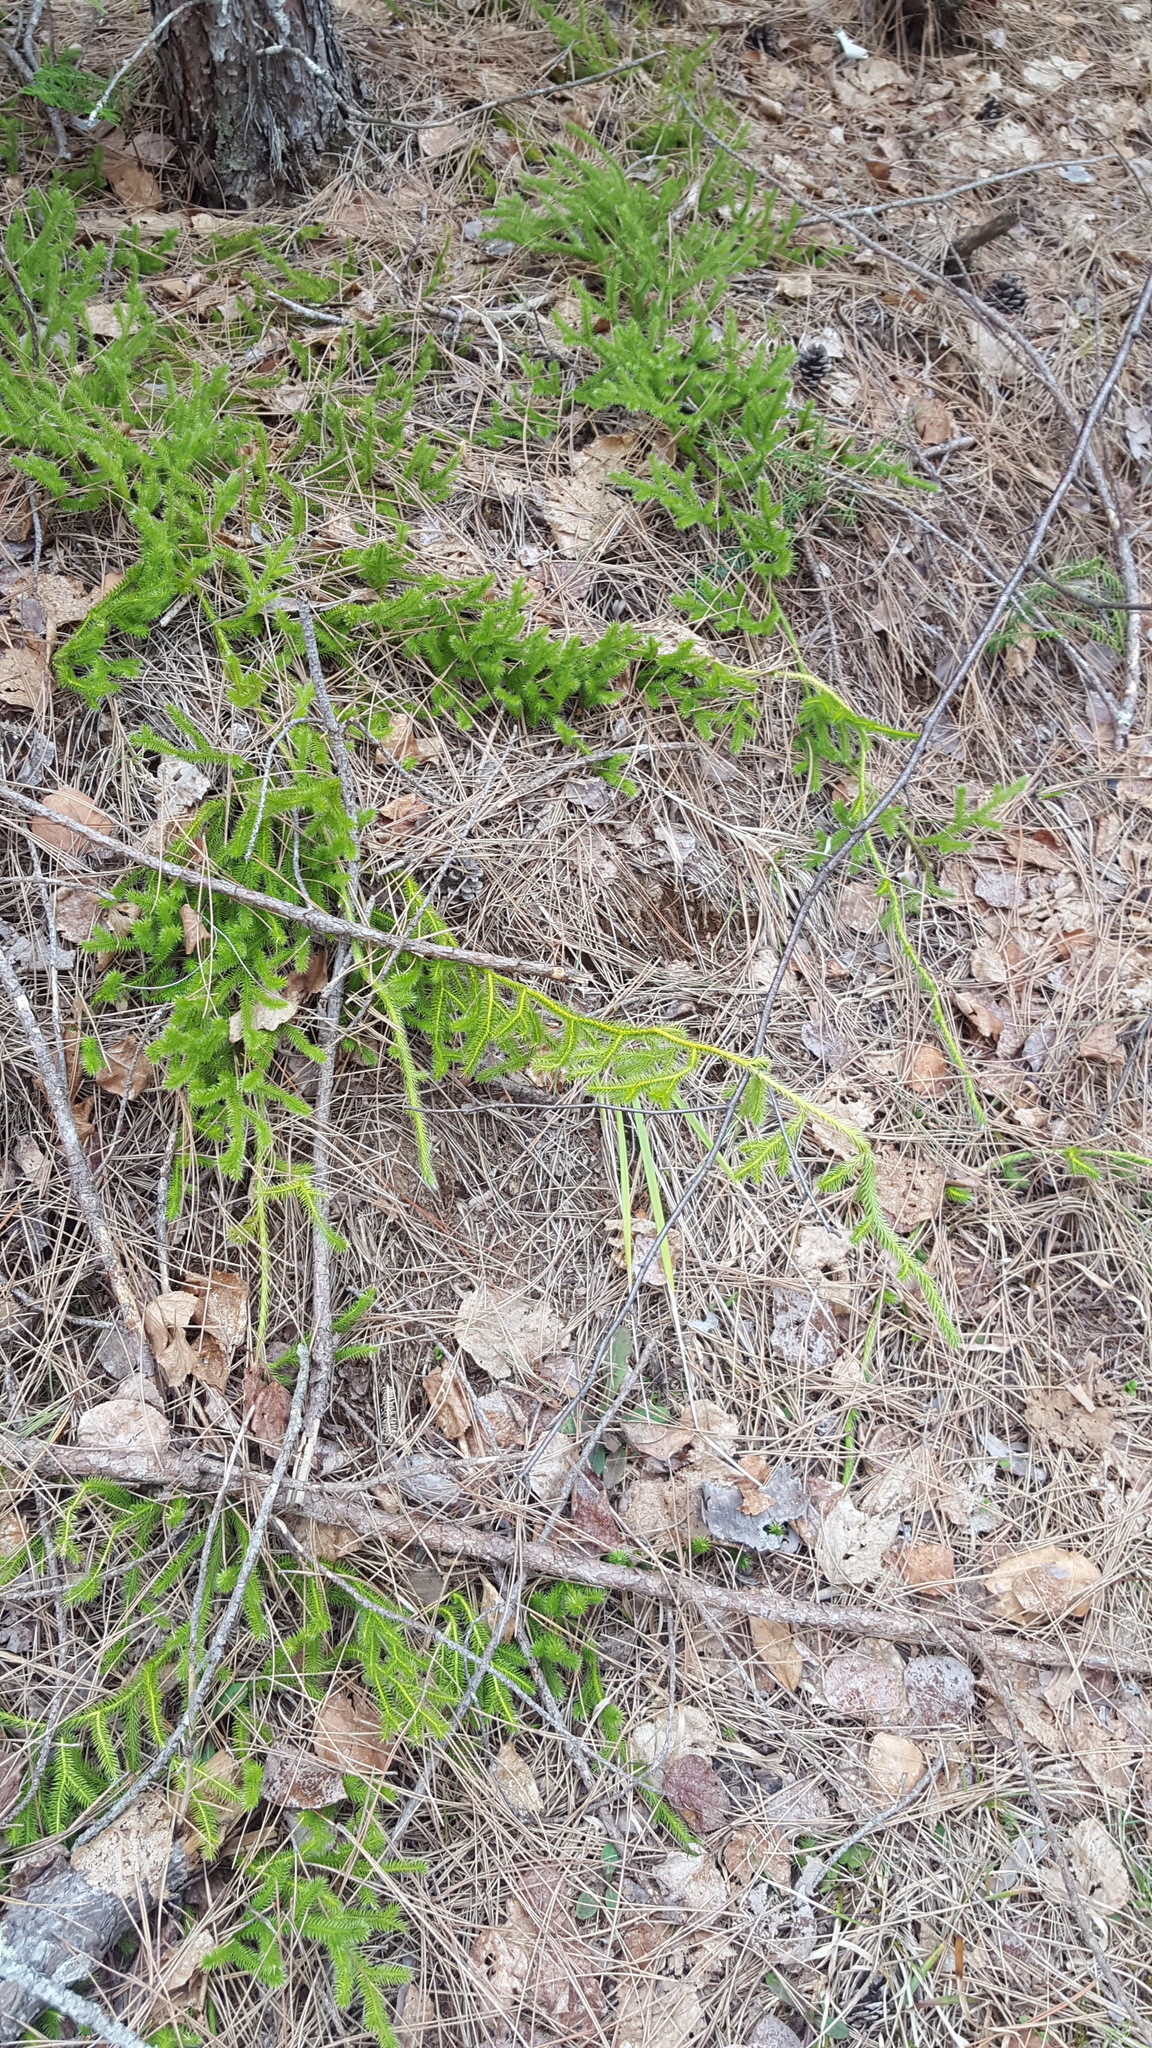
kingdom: Plantae
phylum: Tracheophyta
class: Lycopodiopsida
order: Lycopodiales
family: Lycopodiaceae
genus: Lycopodium
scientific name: Lycopodium clavatum
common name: Stag's-horn clubmoss
